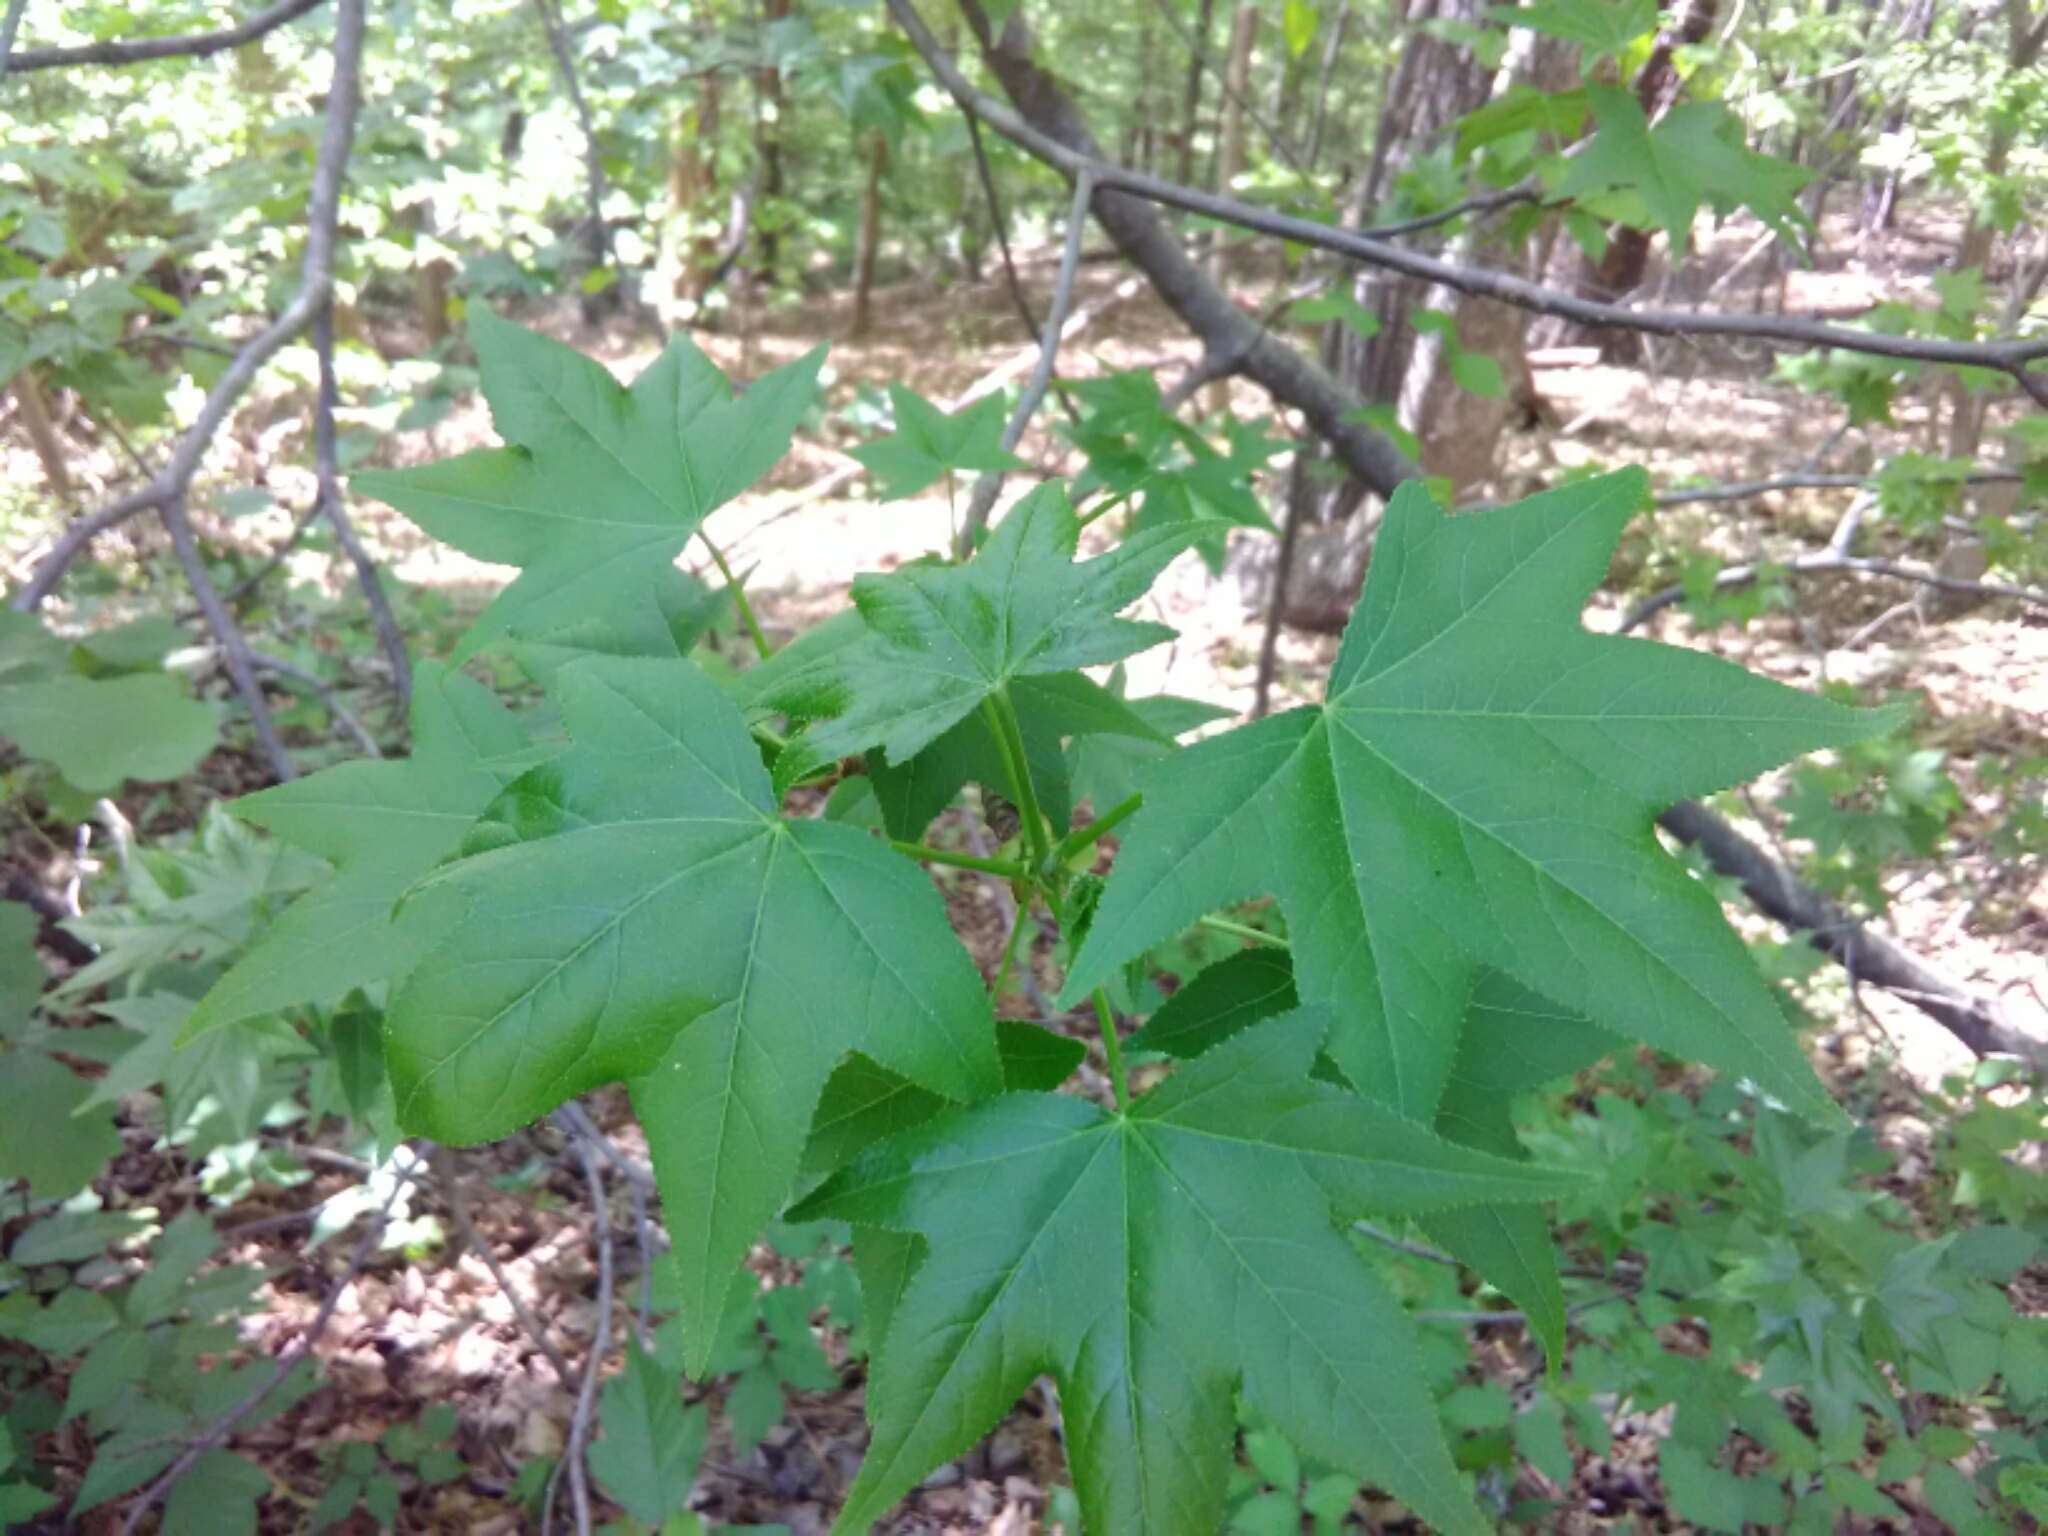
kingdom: Plantae
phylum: Tracheophyta
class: Magnoliopsida
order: Saxifragales
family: Altingiaceae
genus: Liquidambar
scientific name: Liquidambar styraciflua
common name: Sweet gum
